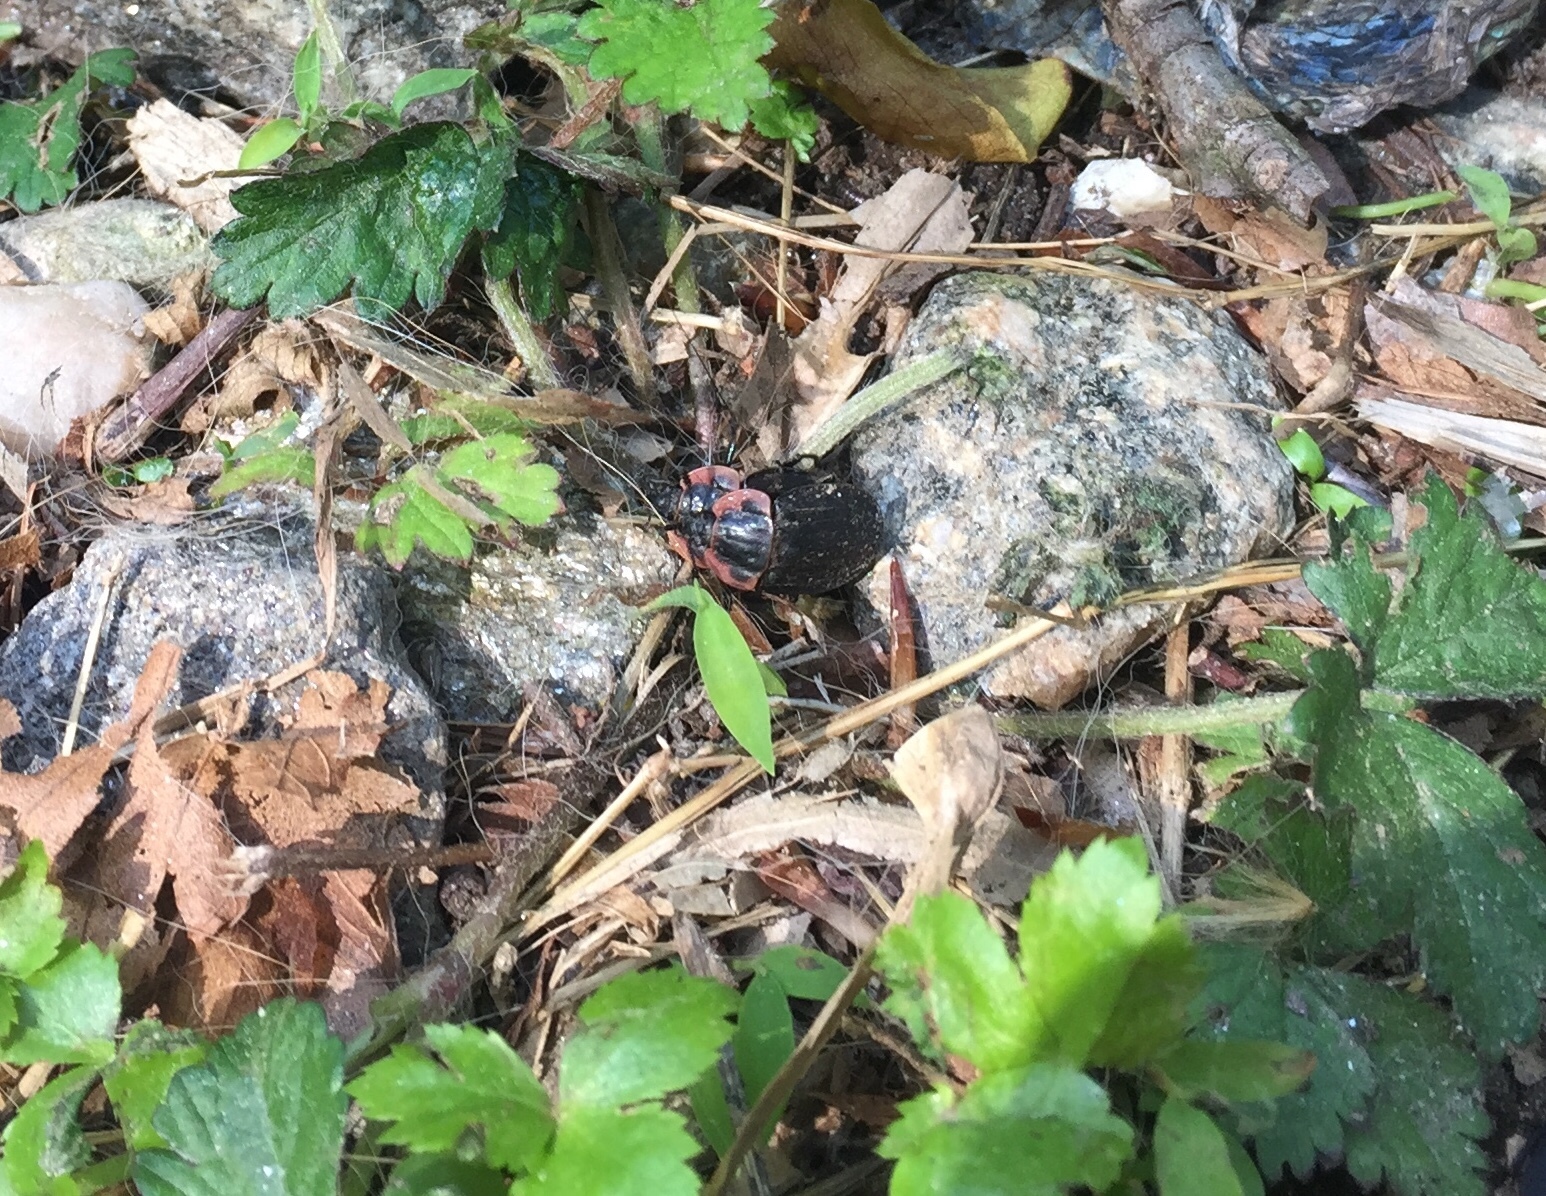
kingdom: Animalia
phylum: Arthropoda
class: Insecta
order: Coleoptera
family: Staphylinidae
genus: Oiceoptoma
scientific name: Oiceoptoma noveboracense
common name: Margined carrion beetle
